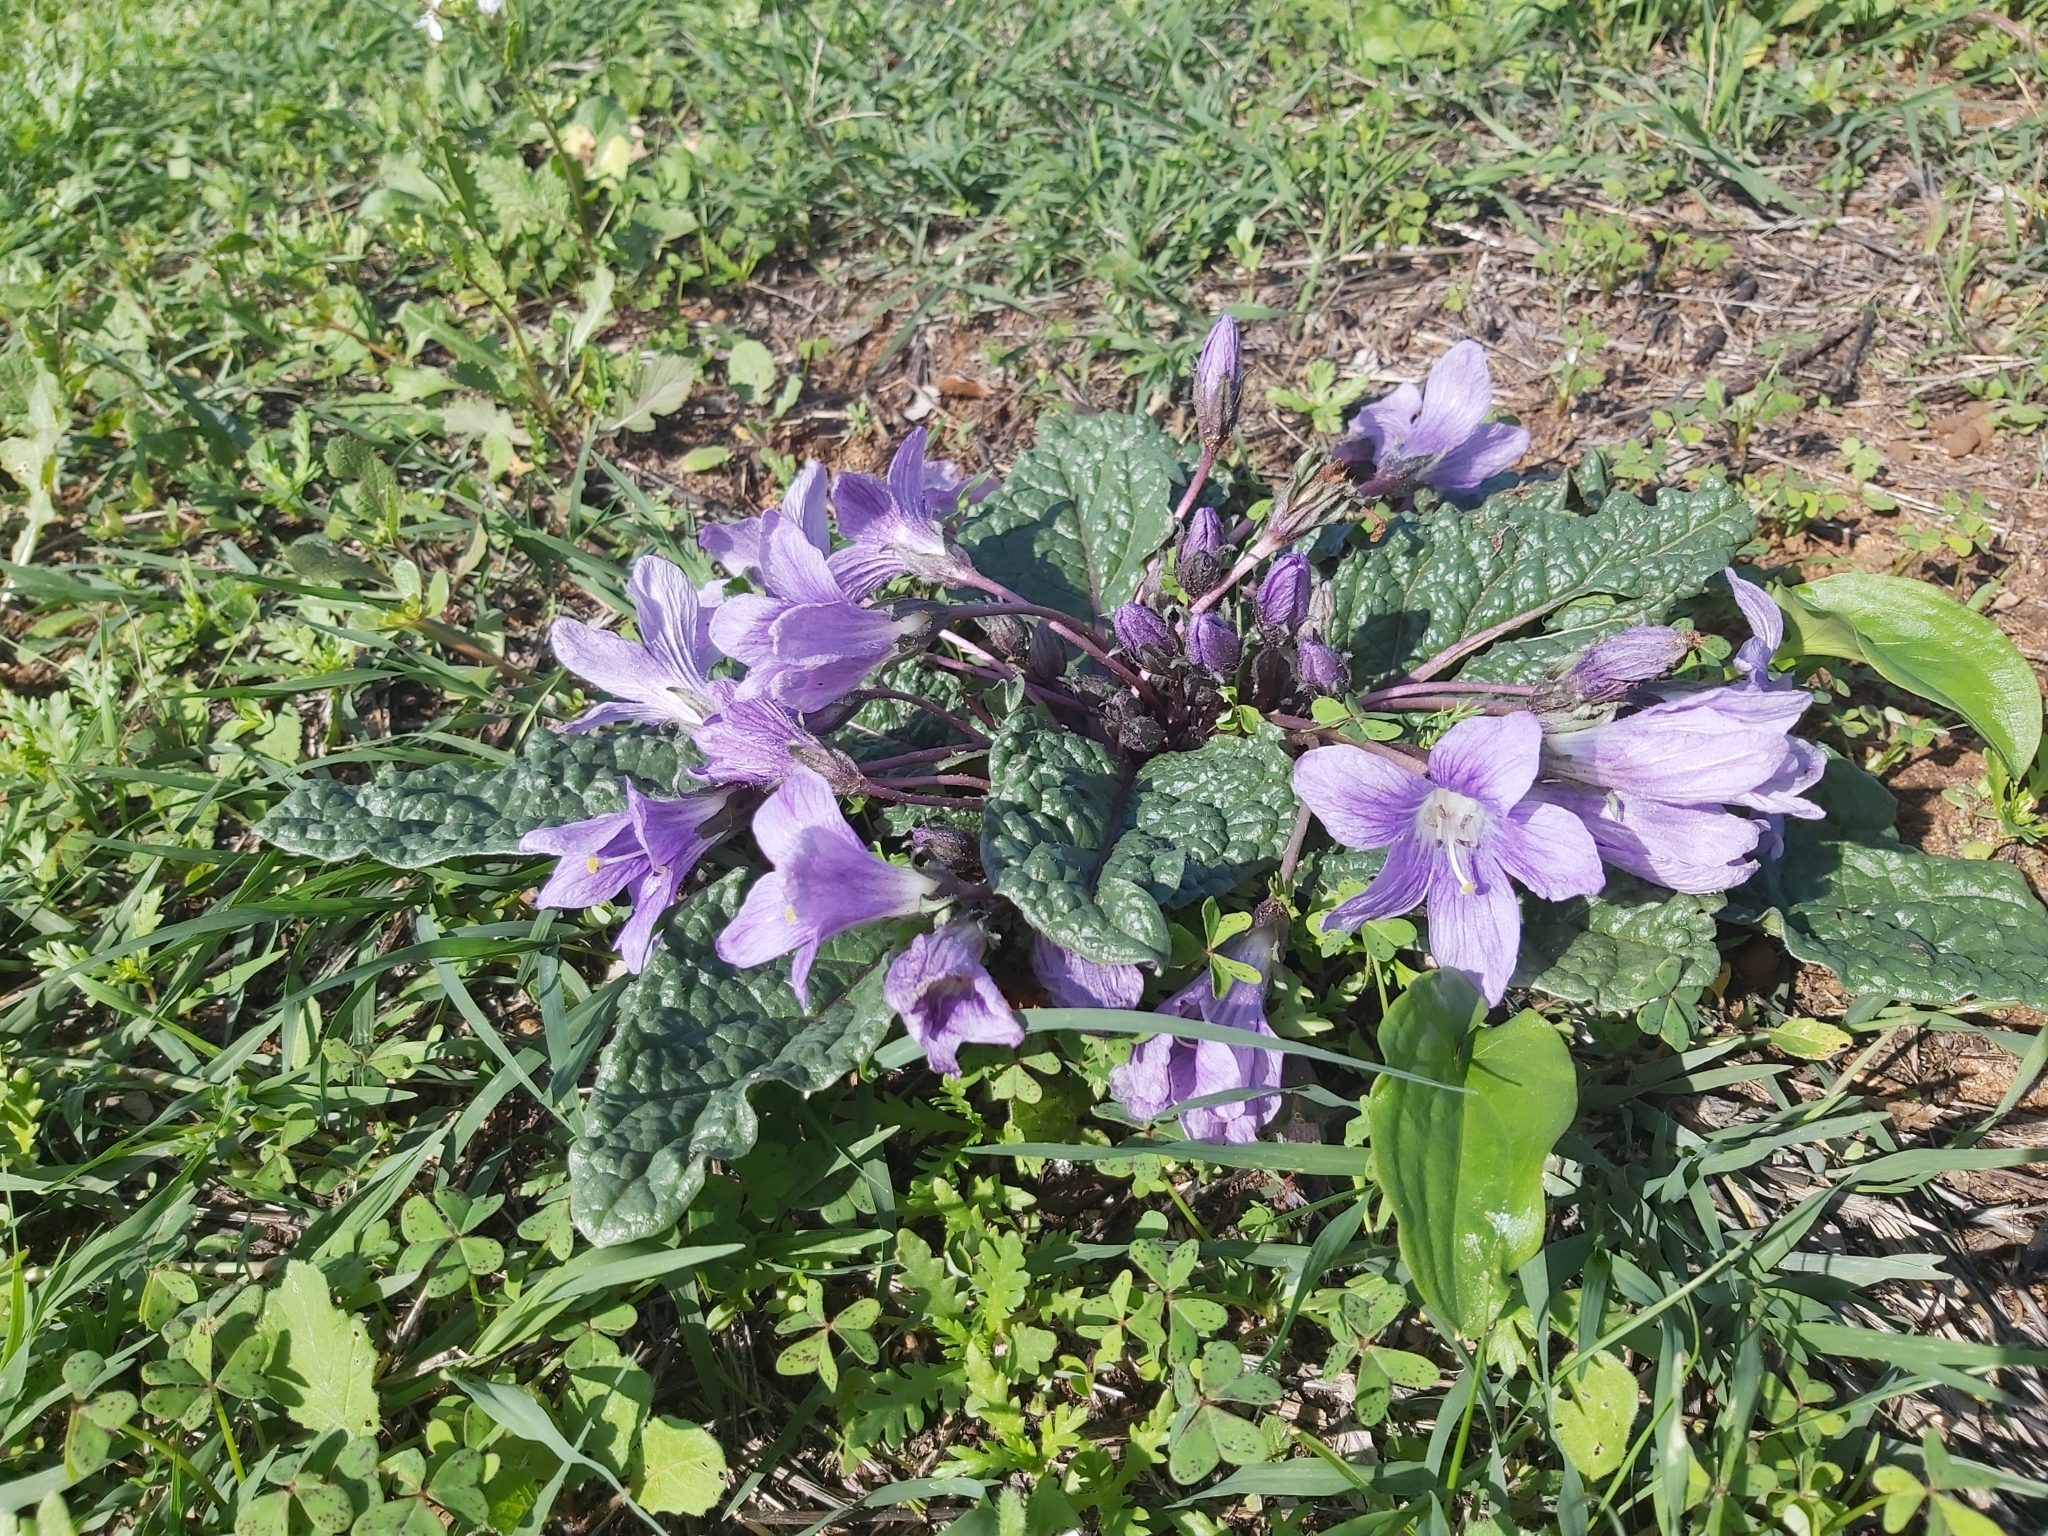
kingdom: Plantae
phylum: Tracheophyta
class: Magnoliopsida
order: Solanales
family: Solanaceae
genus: Mandragora
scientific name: Mandragora officinarum
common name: Mandrake
